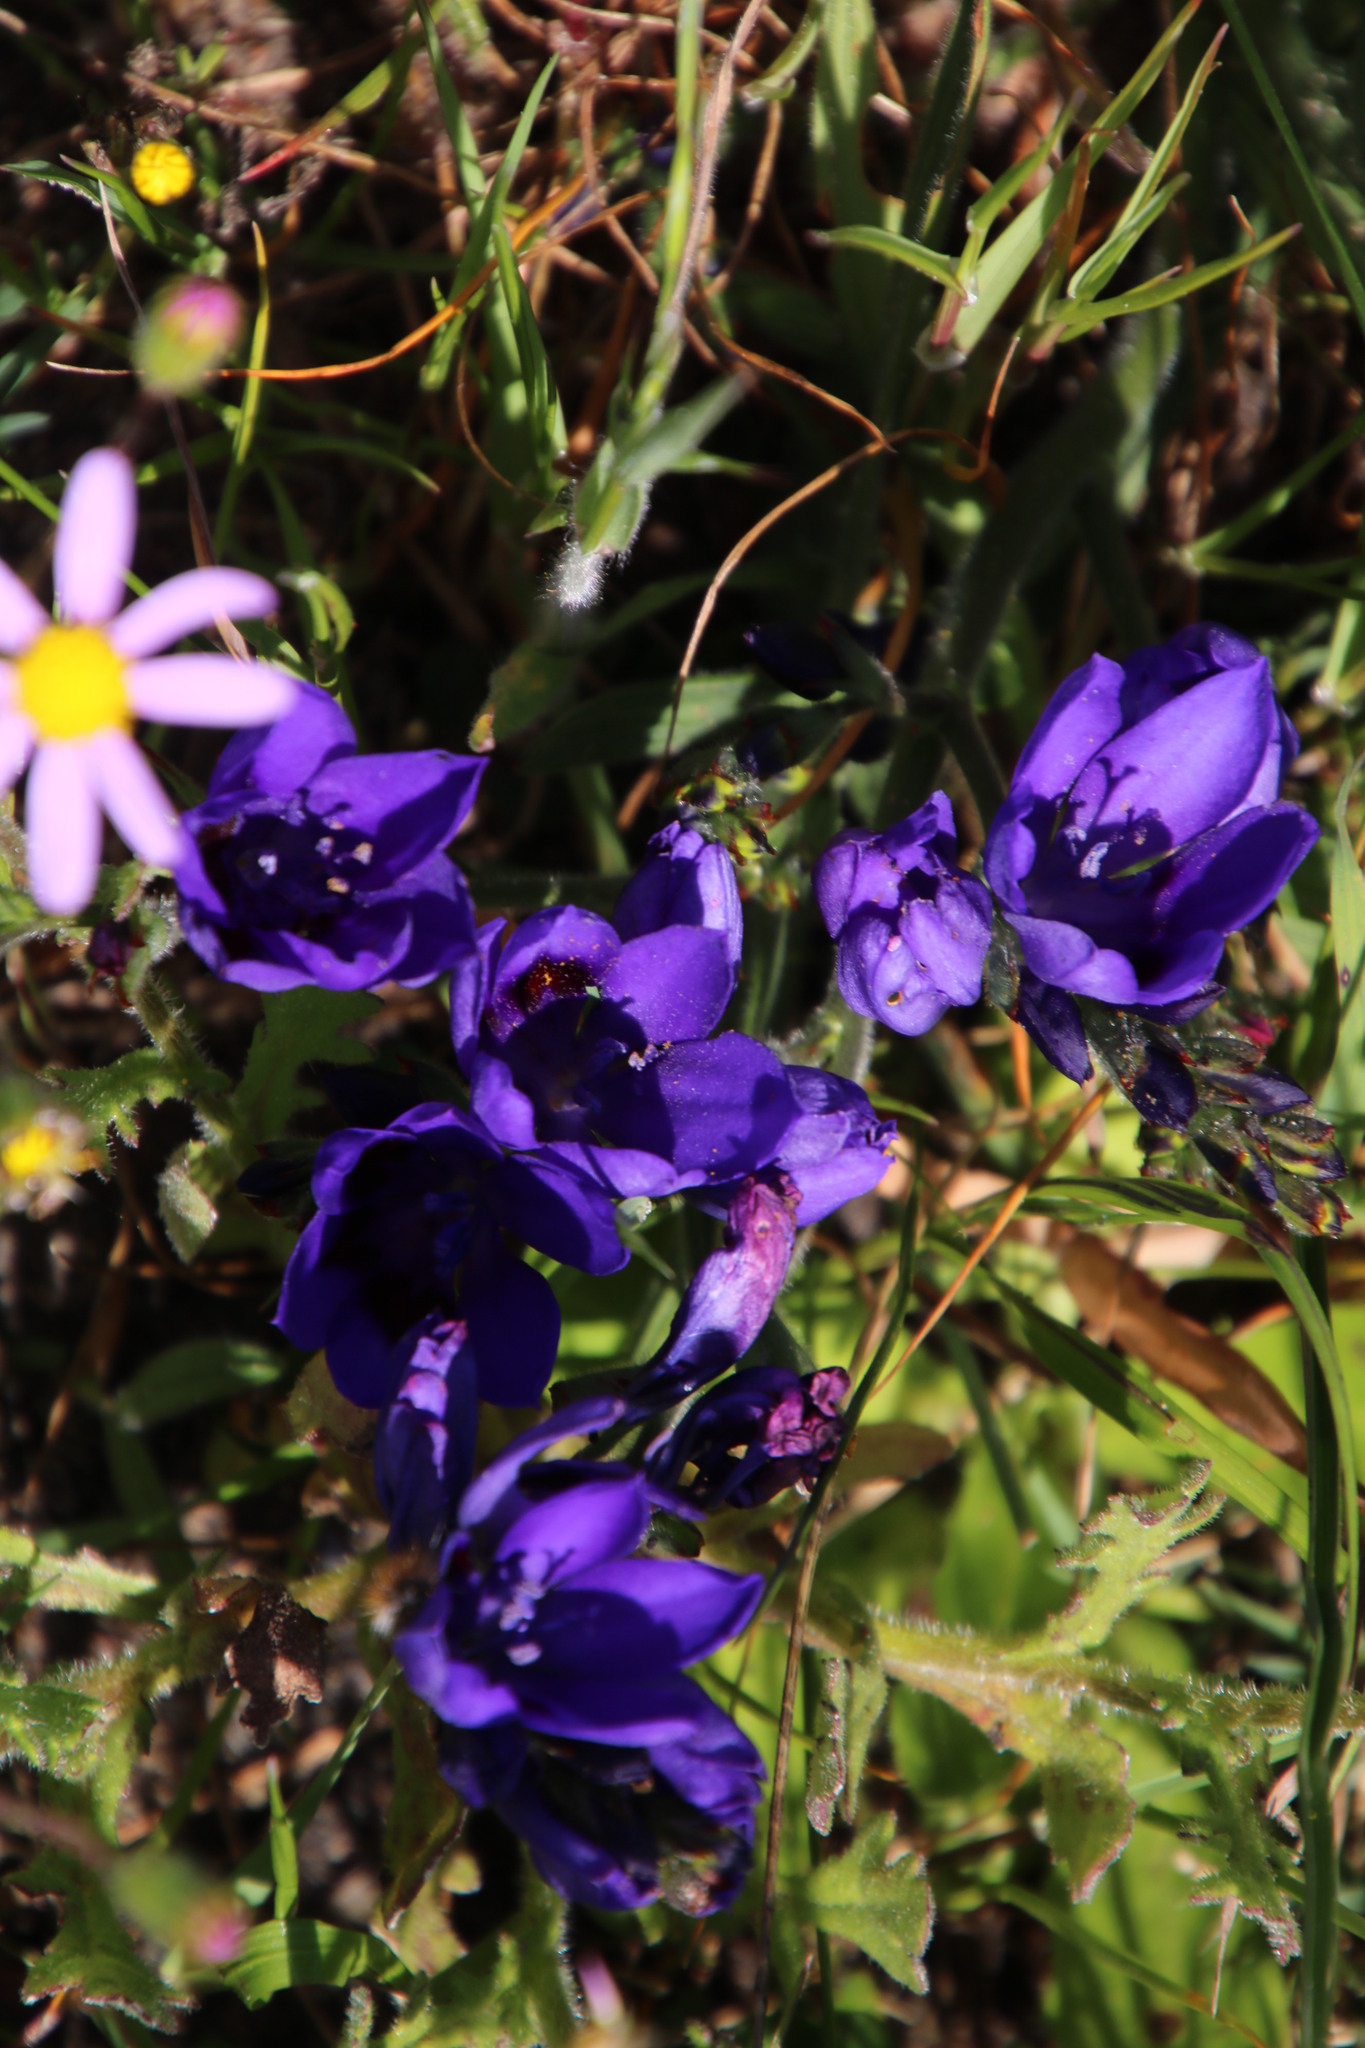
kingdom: Plantae
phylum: Tracheophyta
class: Liliopsida
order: Asparagales
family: Iridaceae
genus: Babiana
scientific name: Babiana angustifolia
